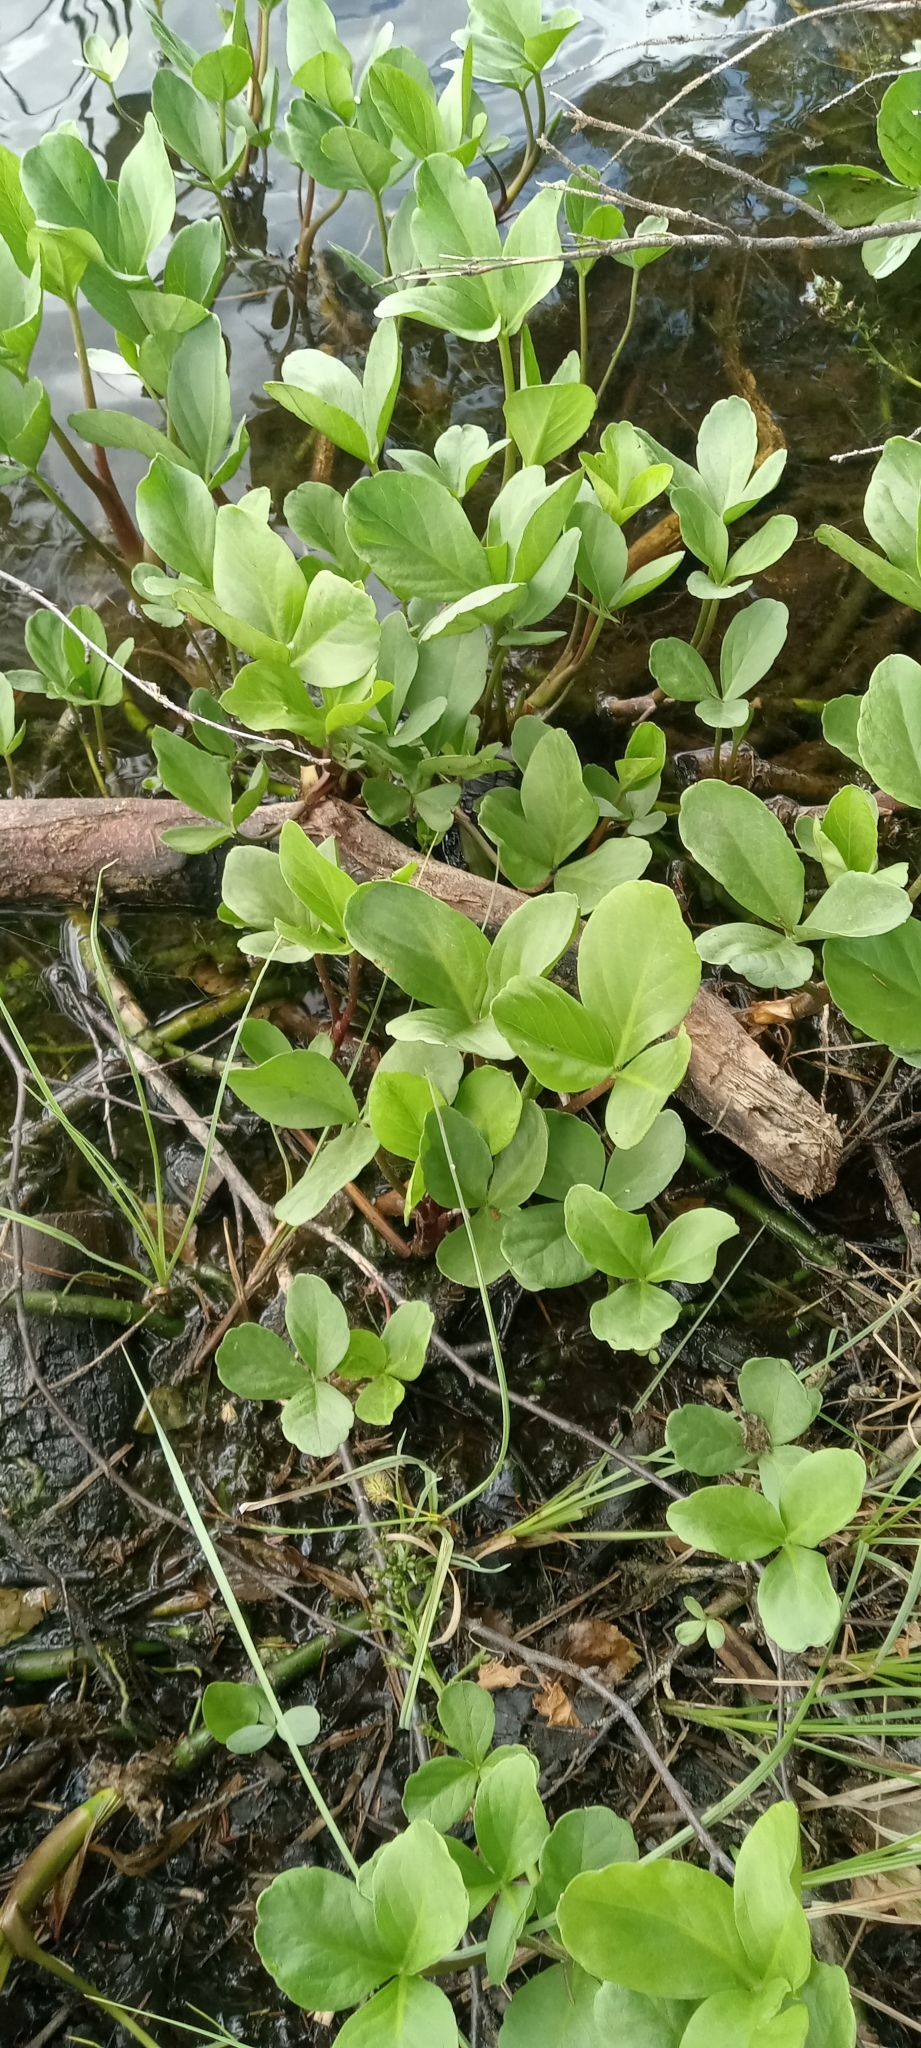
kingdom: Plantae
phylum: Tracheophyta
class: Magnoliopsida
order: Asterales
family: Menyanthaceae
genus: Menyanthes
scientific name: Menyanthes trifoliata
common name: Bogbean
